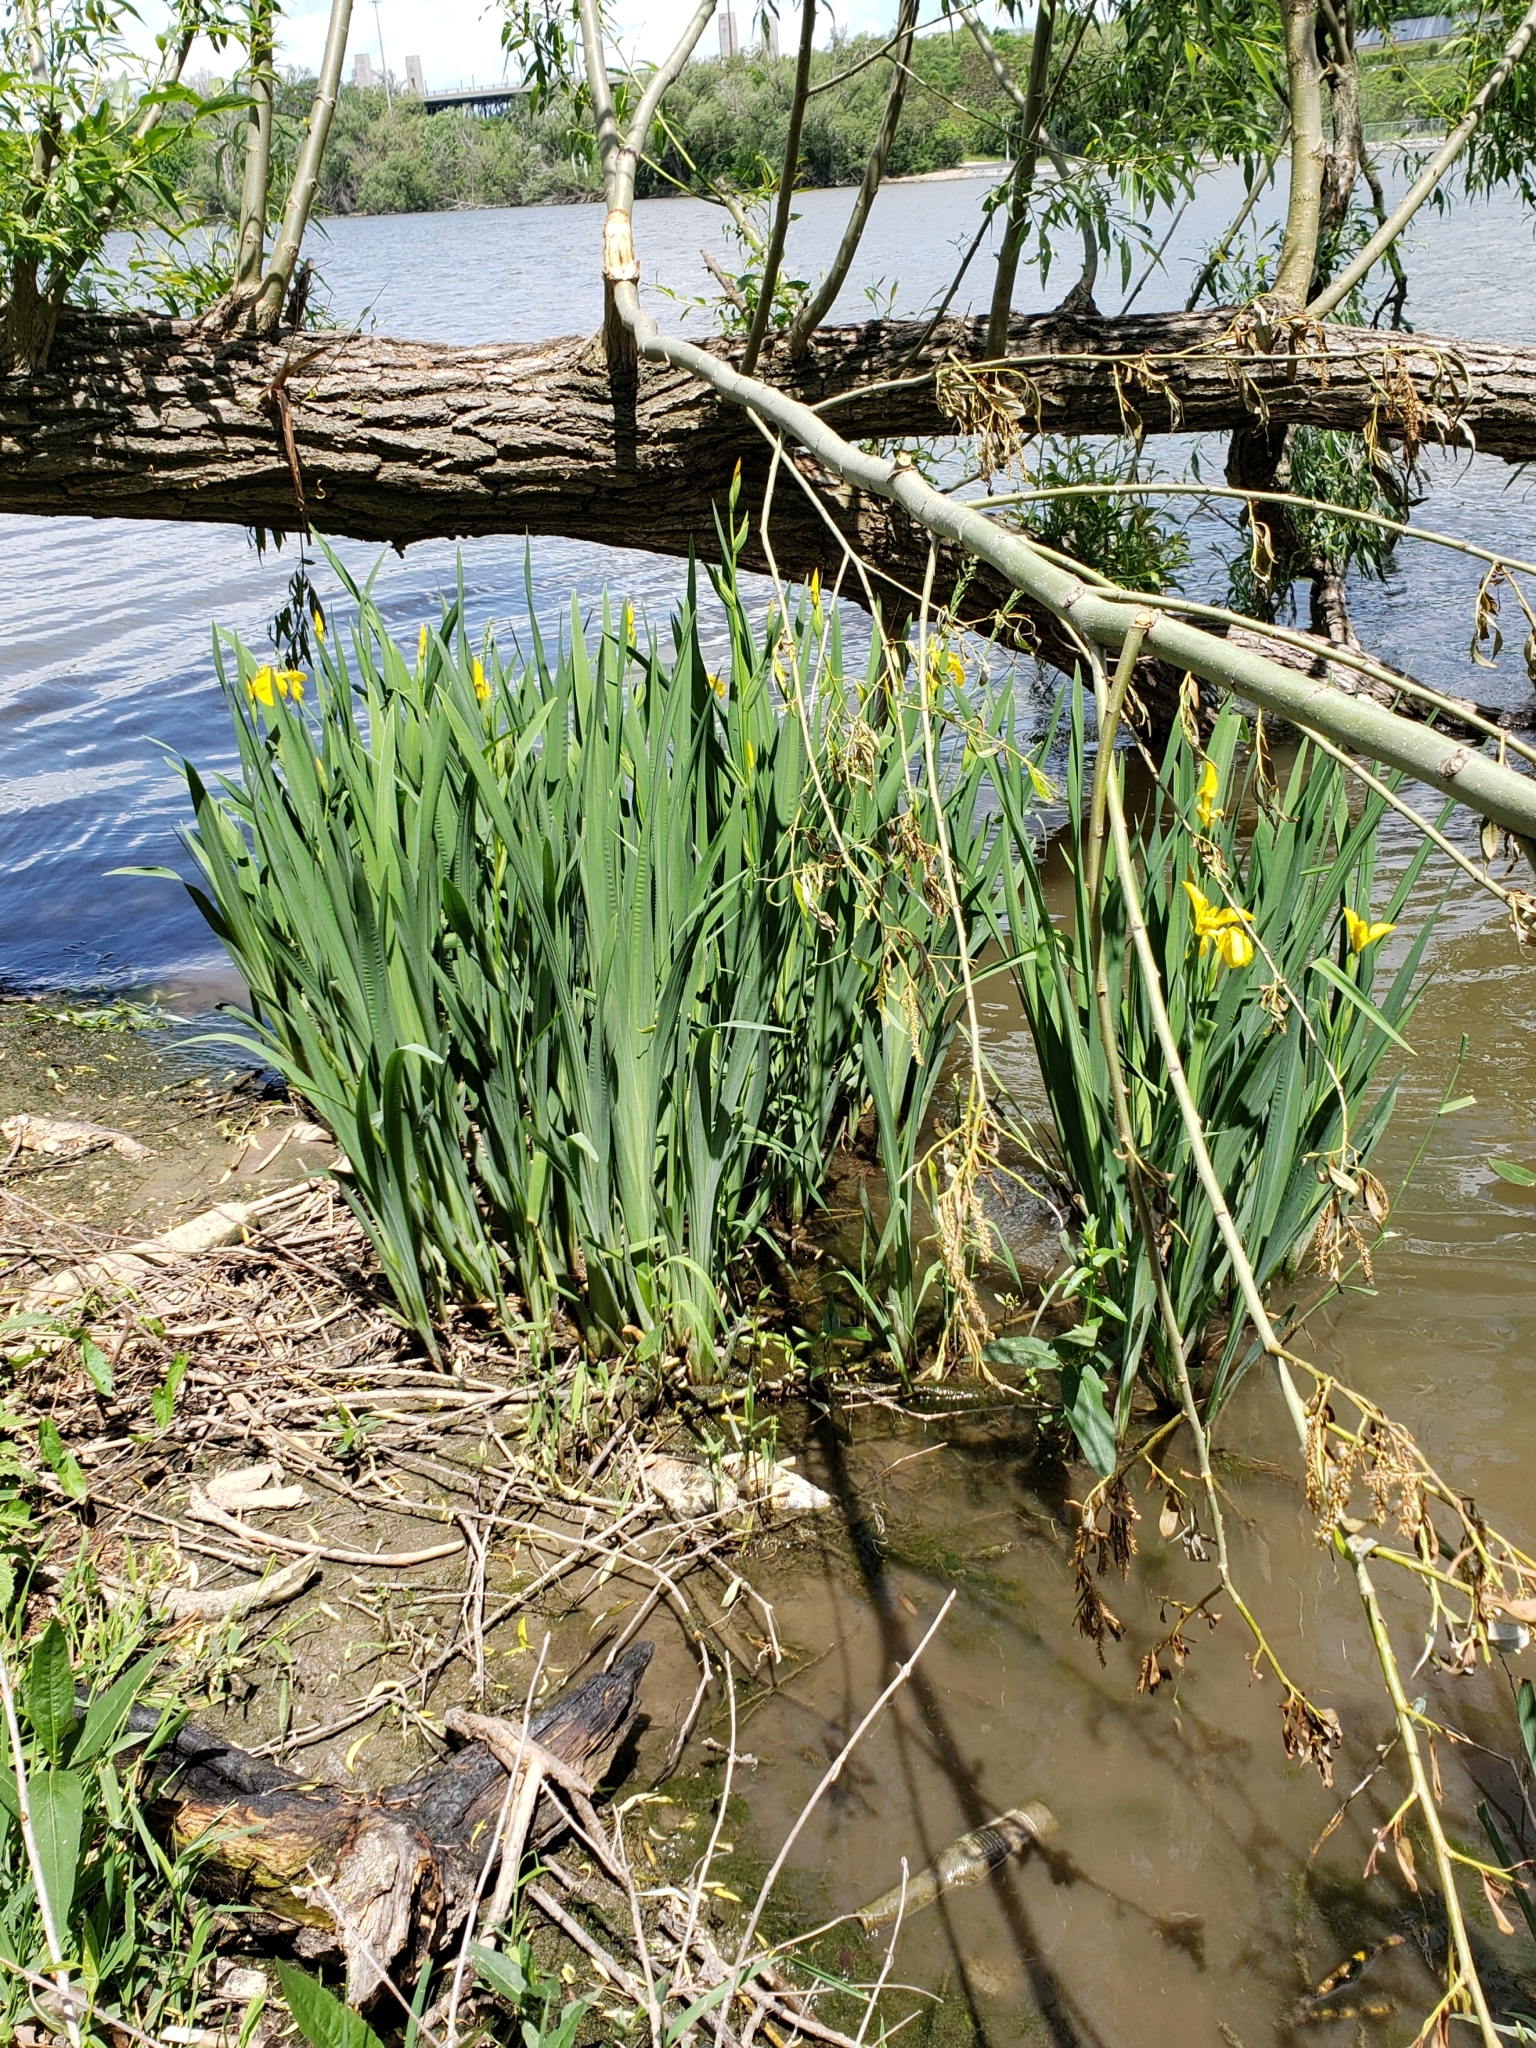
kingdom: Plantae
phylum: Tracheophyta
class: Liliopsida
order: Asparagales
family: Iridaceae
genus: Iris
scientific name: Iris pseudacorus
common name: Yellow flag
